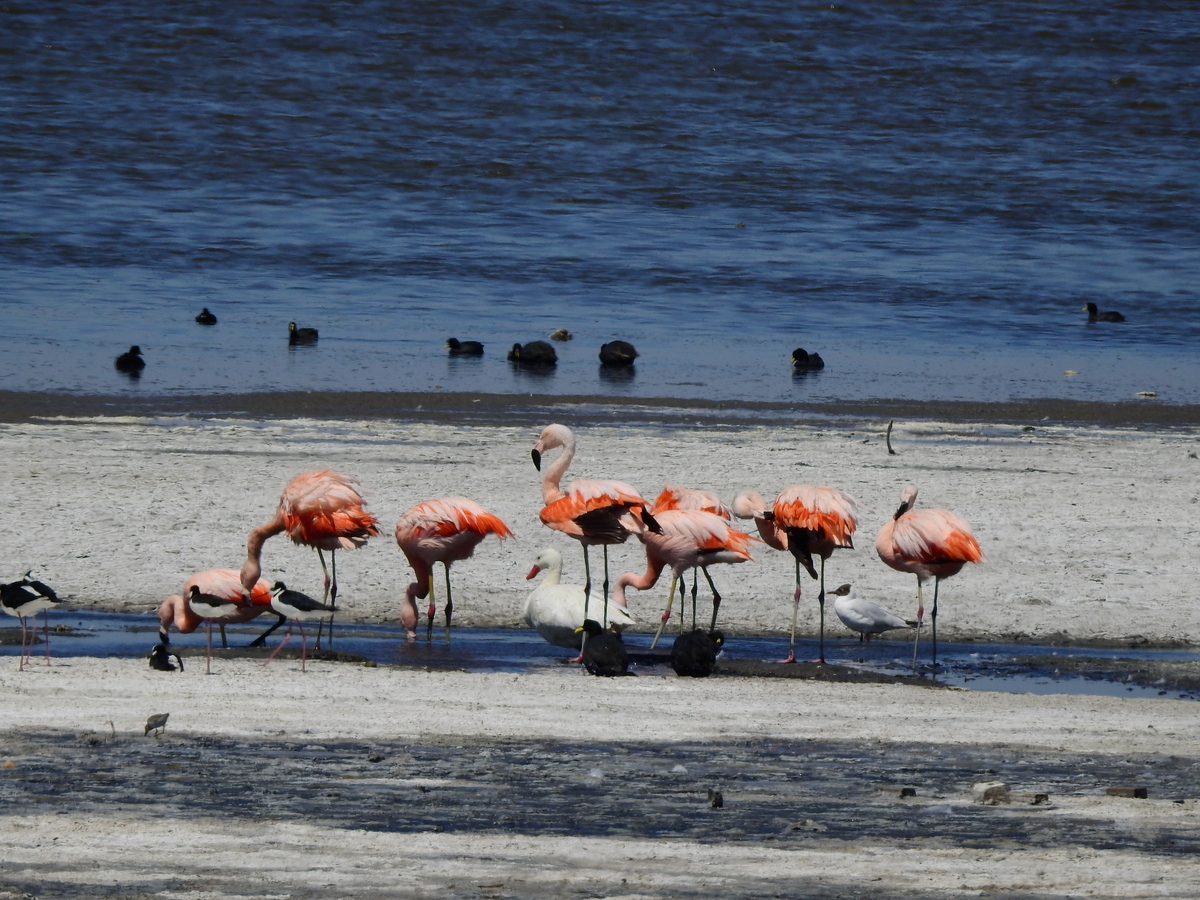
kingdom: Animalia
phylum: Chordata
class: Aves
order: Phoenicopteriformes
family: Phoenicopteridae
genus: Phoenicopterus
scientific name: Phoenicopterus chilensis
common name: Chilean flamingo
